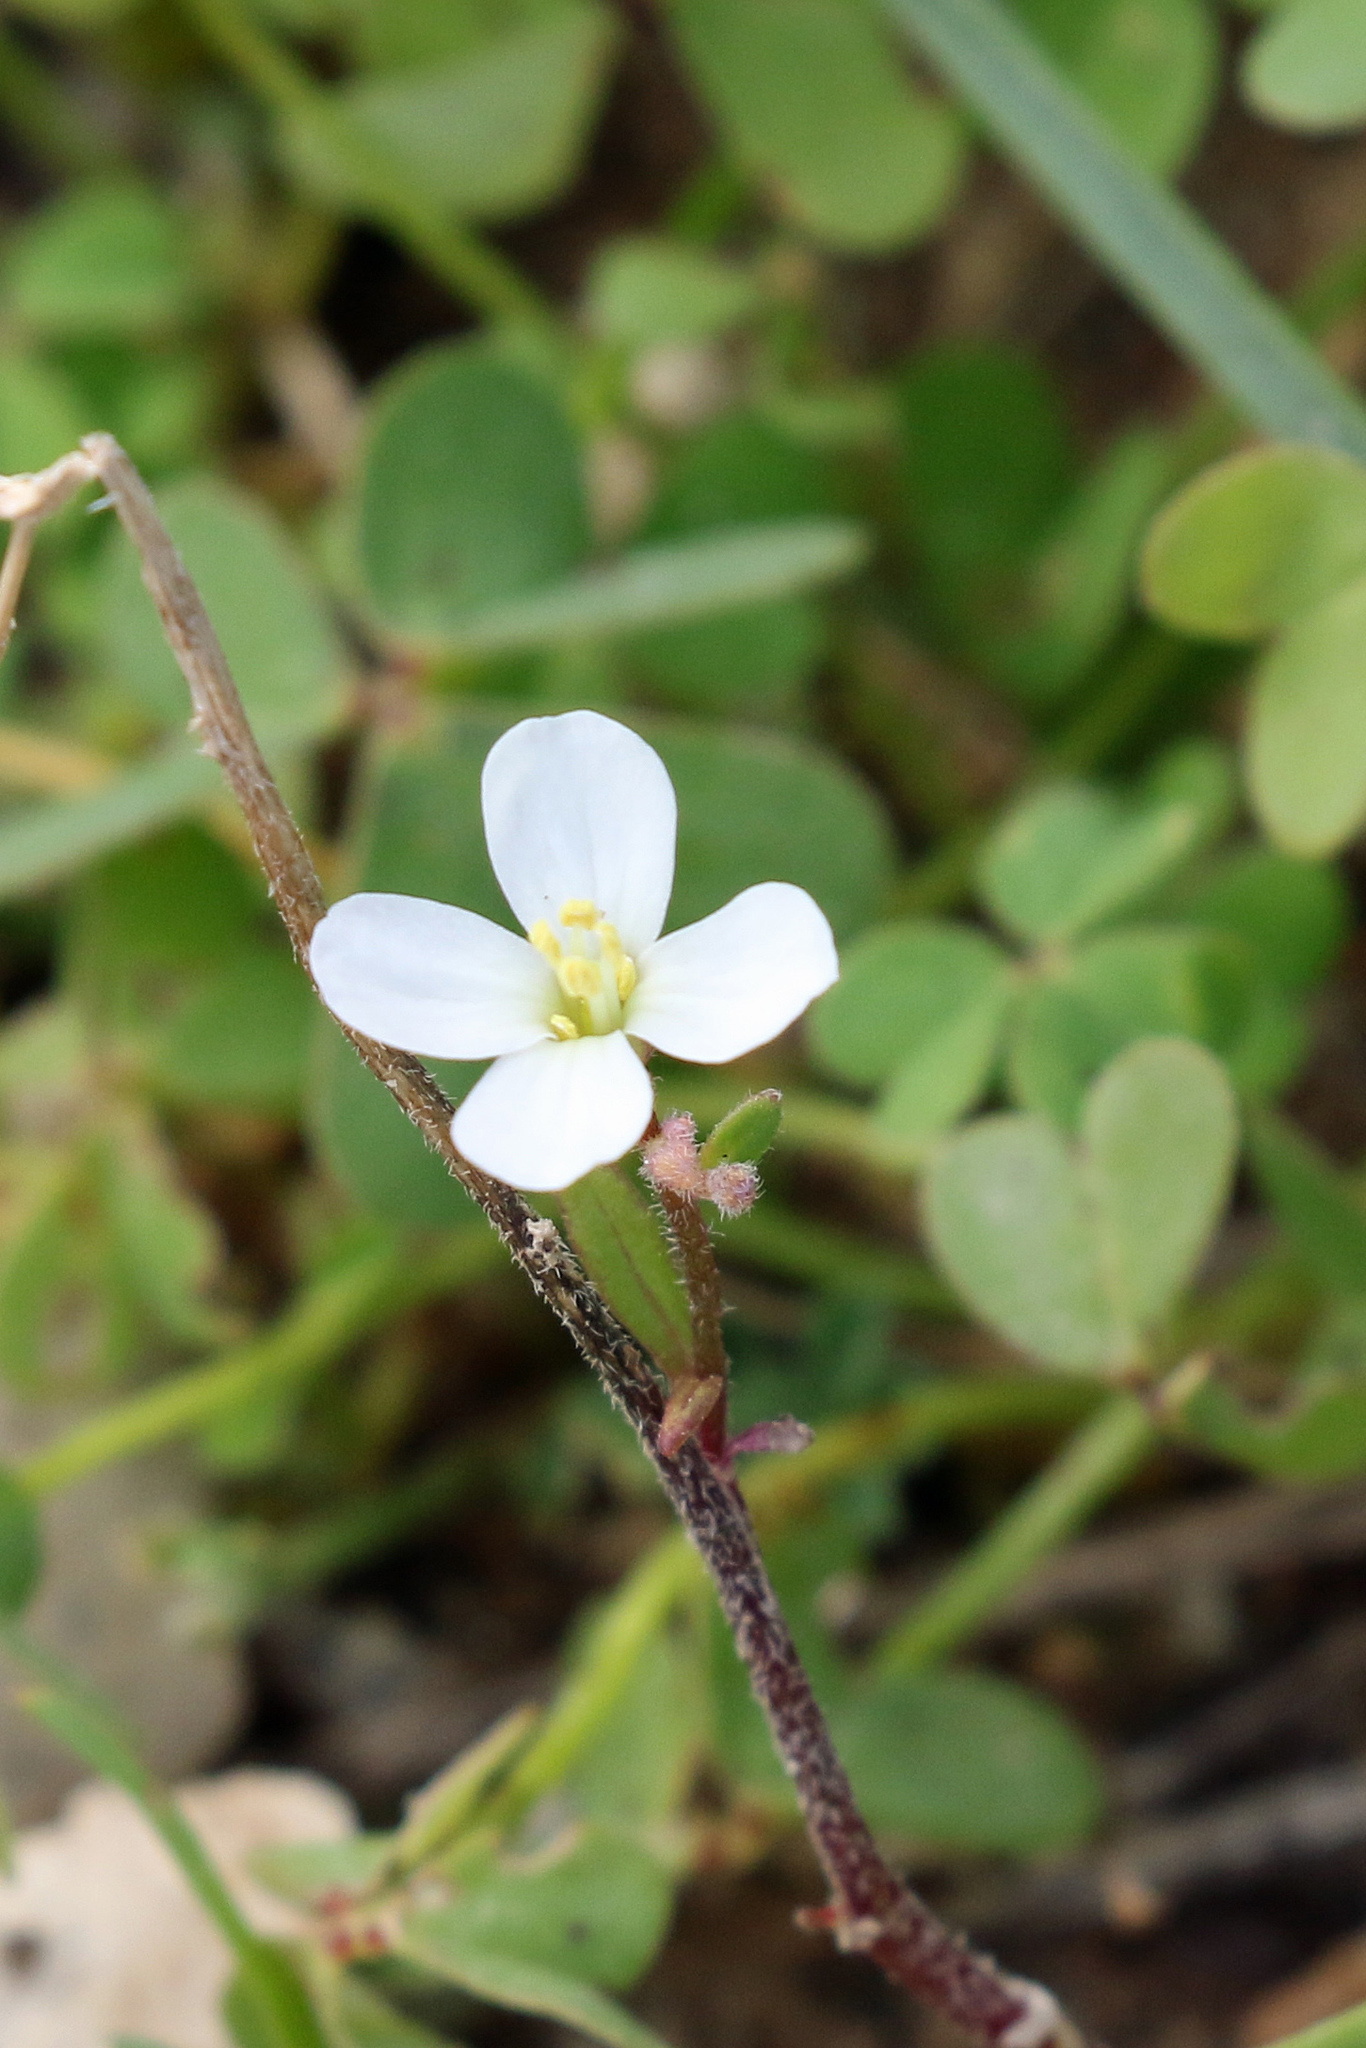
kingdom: Plantae
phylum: Tracheophyta
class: Magnoliopsida
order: Brassicales
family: Brassicaceae
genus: Diplotaxis
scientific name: Diplotaxis erucoides
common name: White rocket
